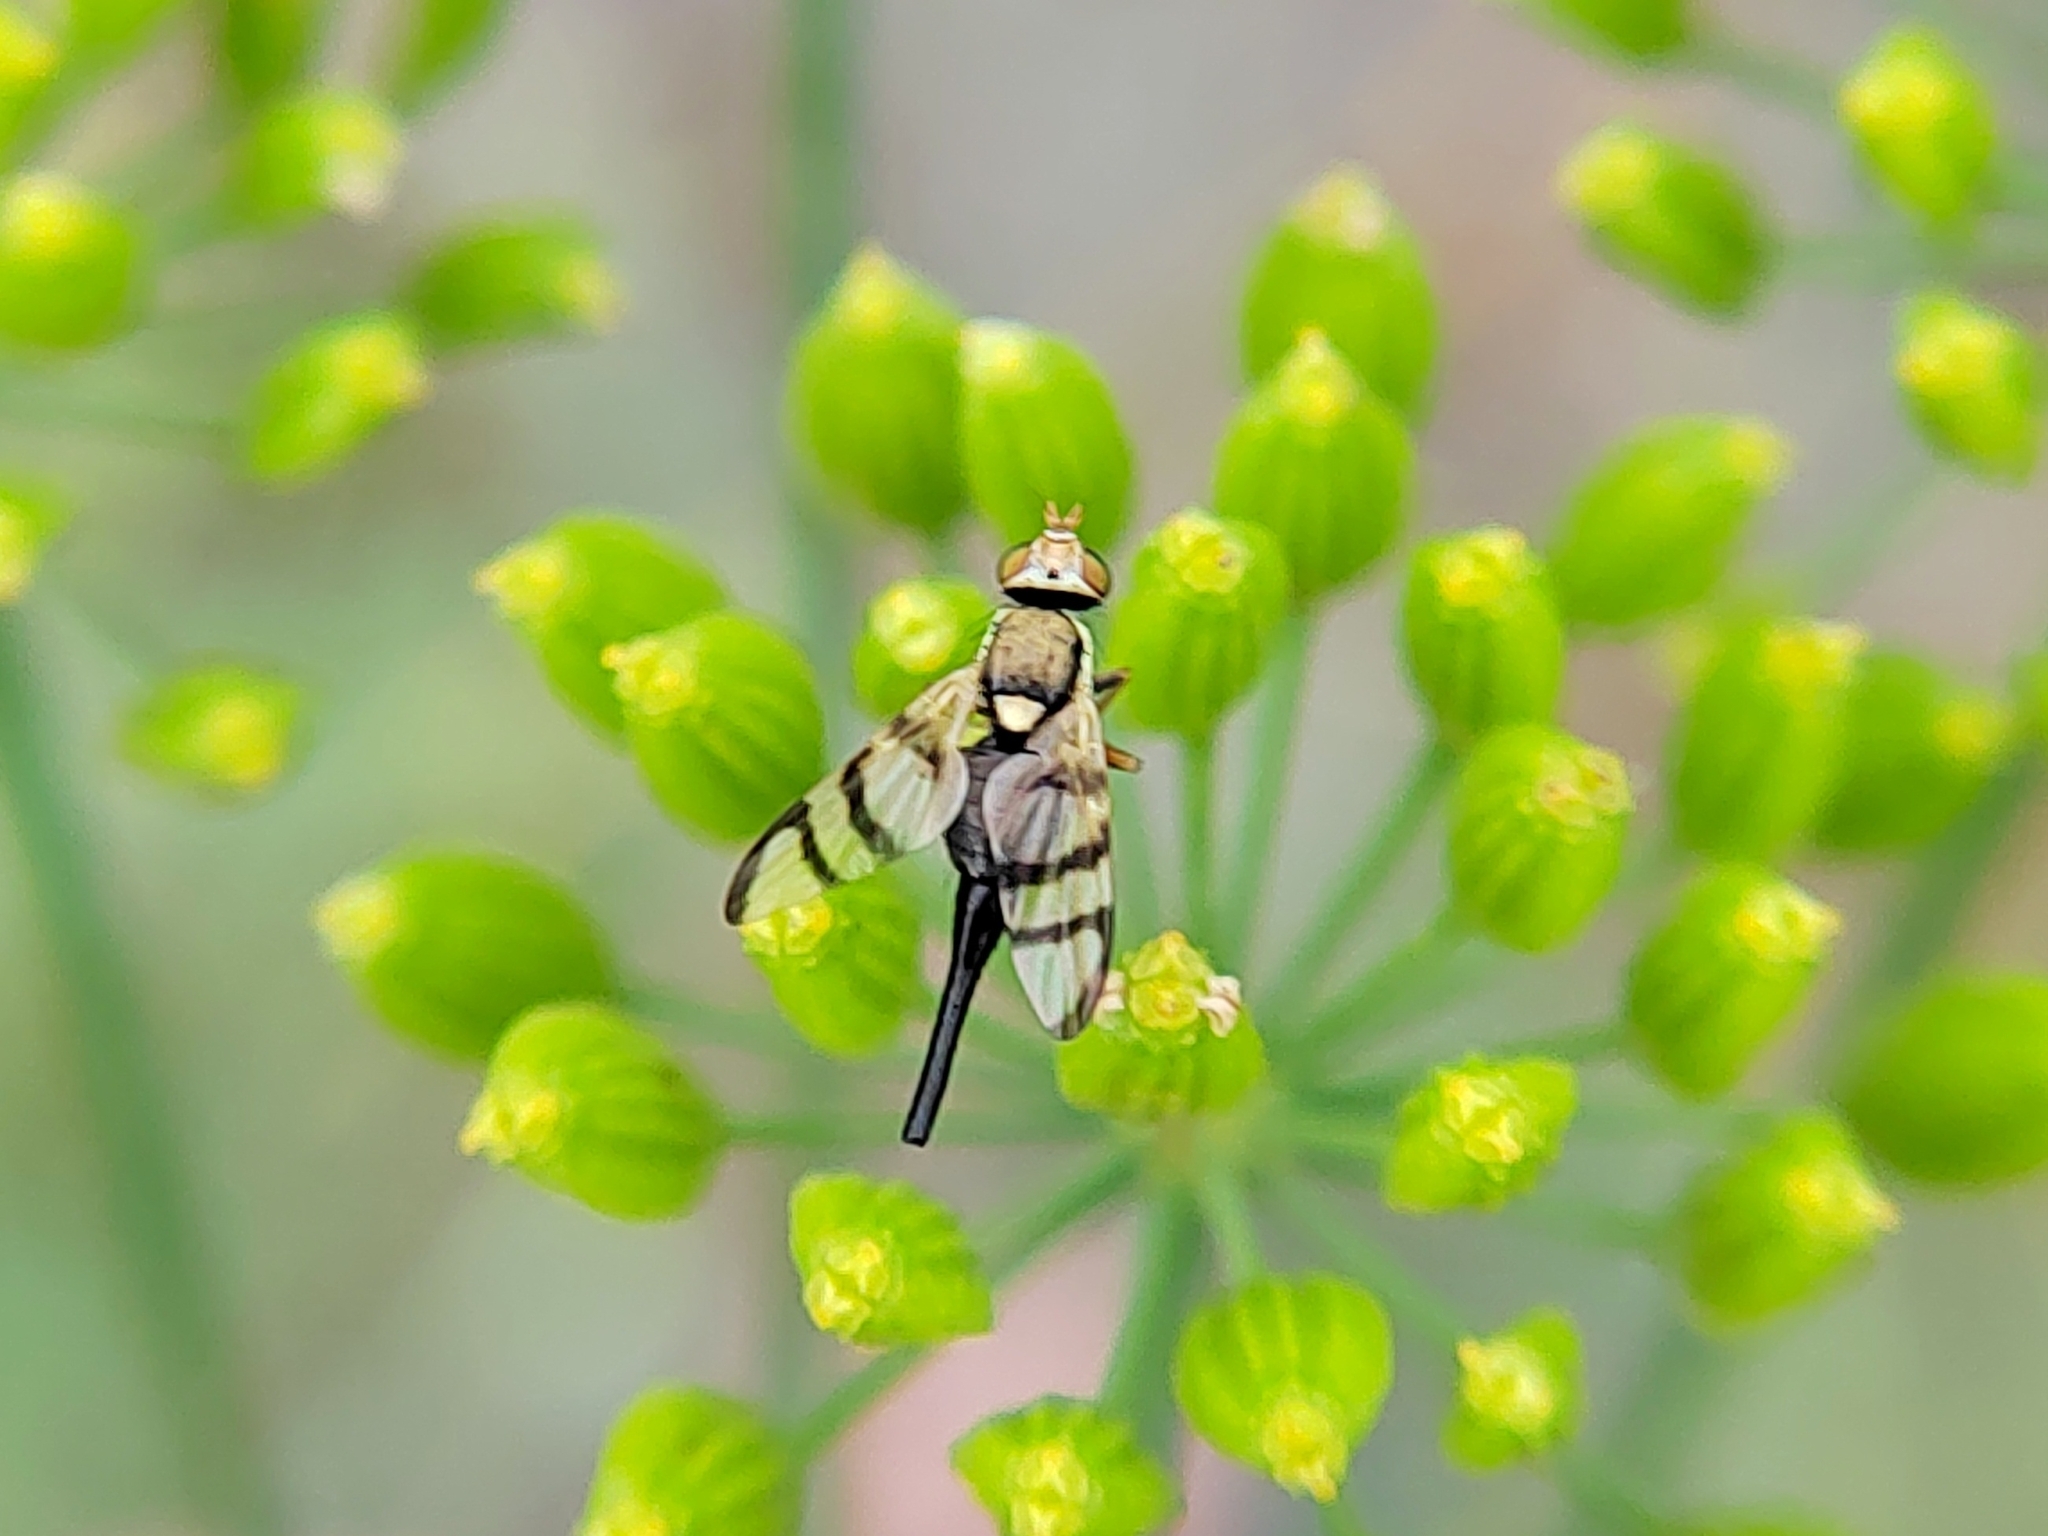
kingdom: Animalia
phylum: Arthropoda
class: Insecta
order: Diptera
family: Tephritidae
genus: Urophora
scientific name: Urophora
